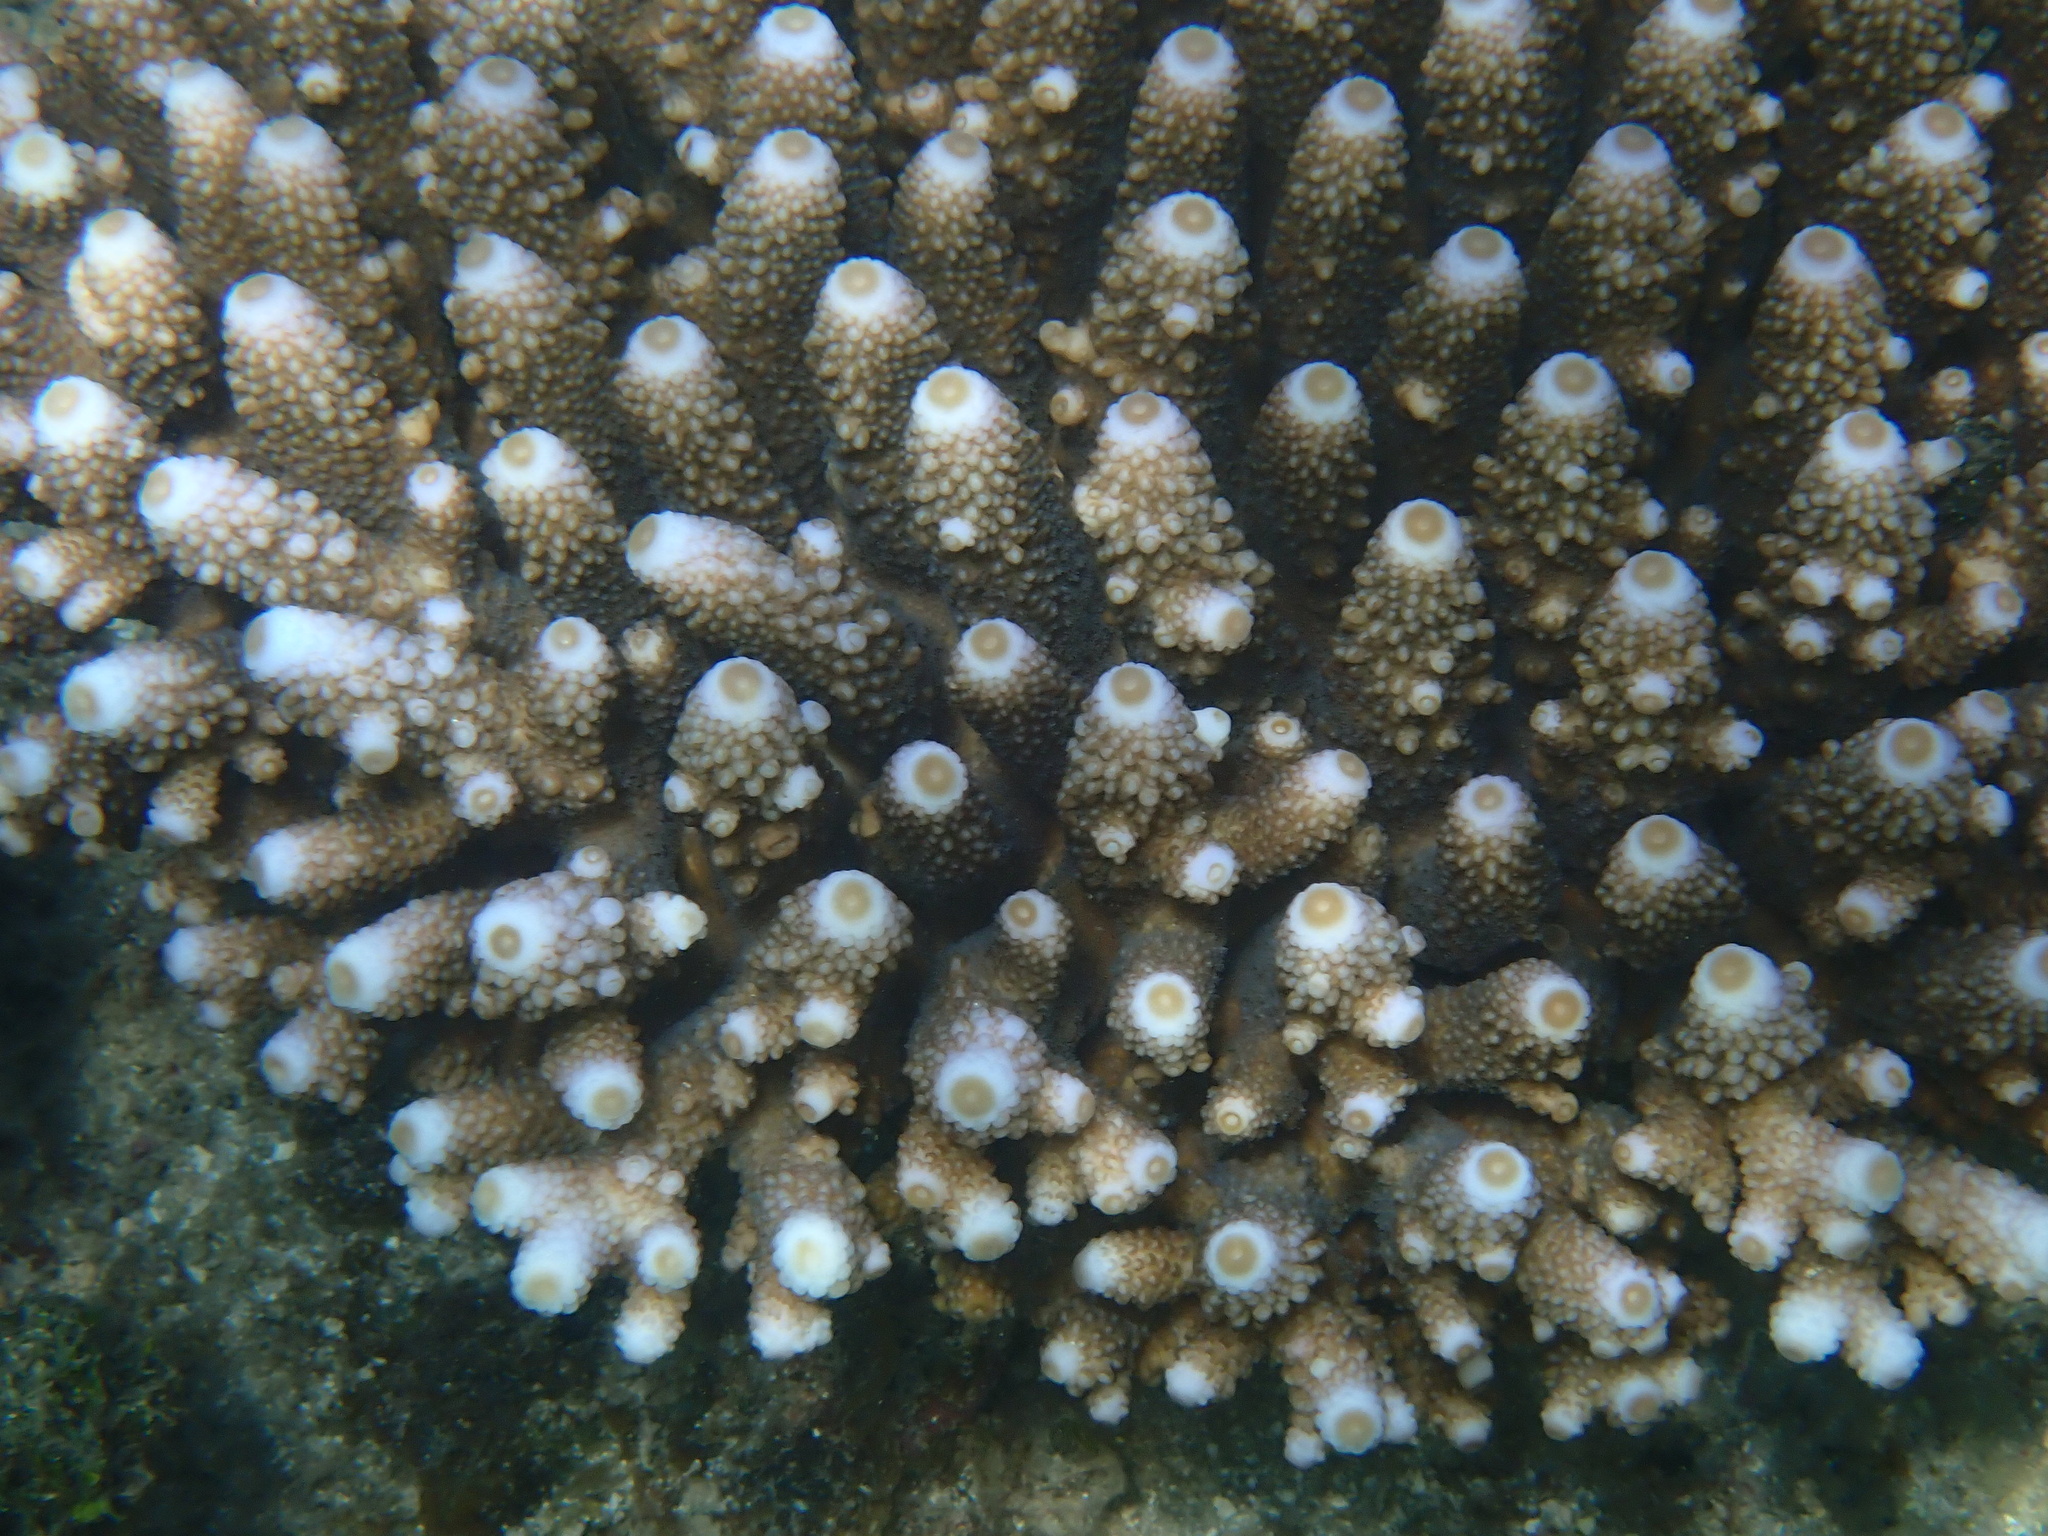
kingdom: Animalia
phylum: Cnidaria
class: Anthozoa
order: Scleractinia
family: Acroporidae
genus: Acropora
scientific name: Acropora humilis
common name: Finger coral
